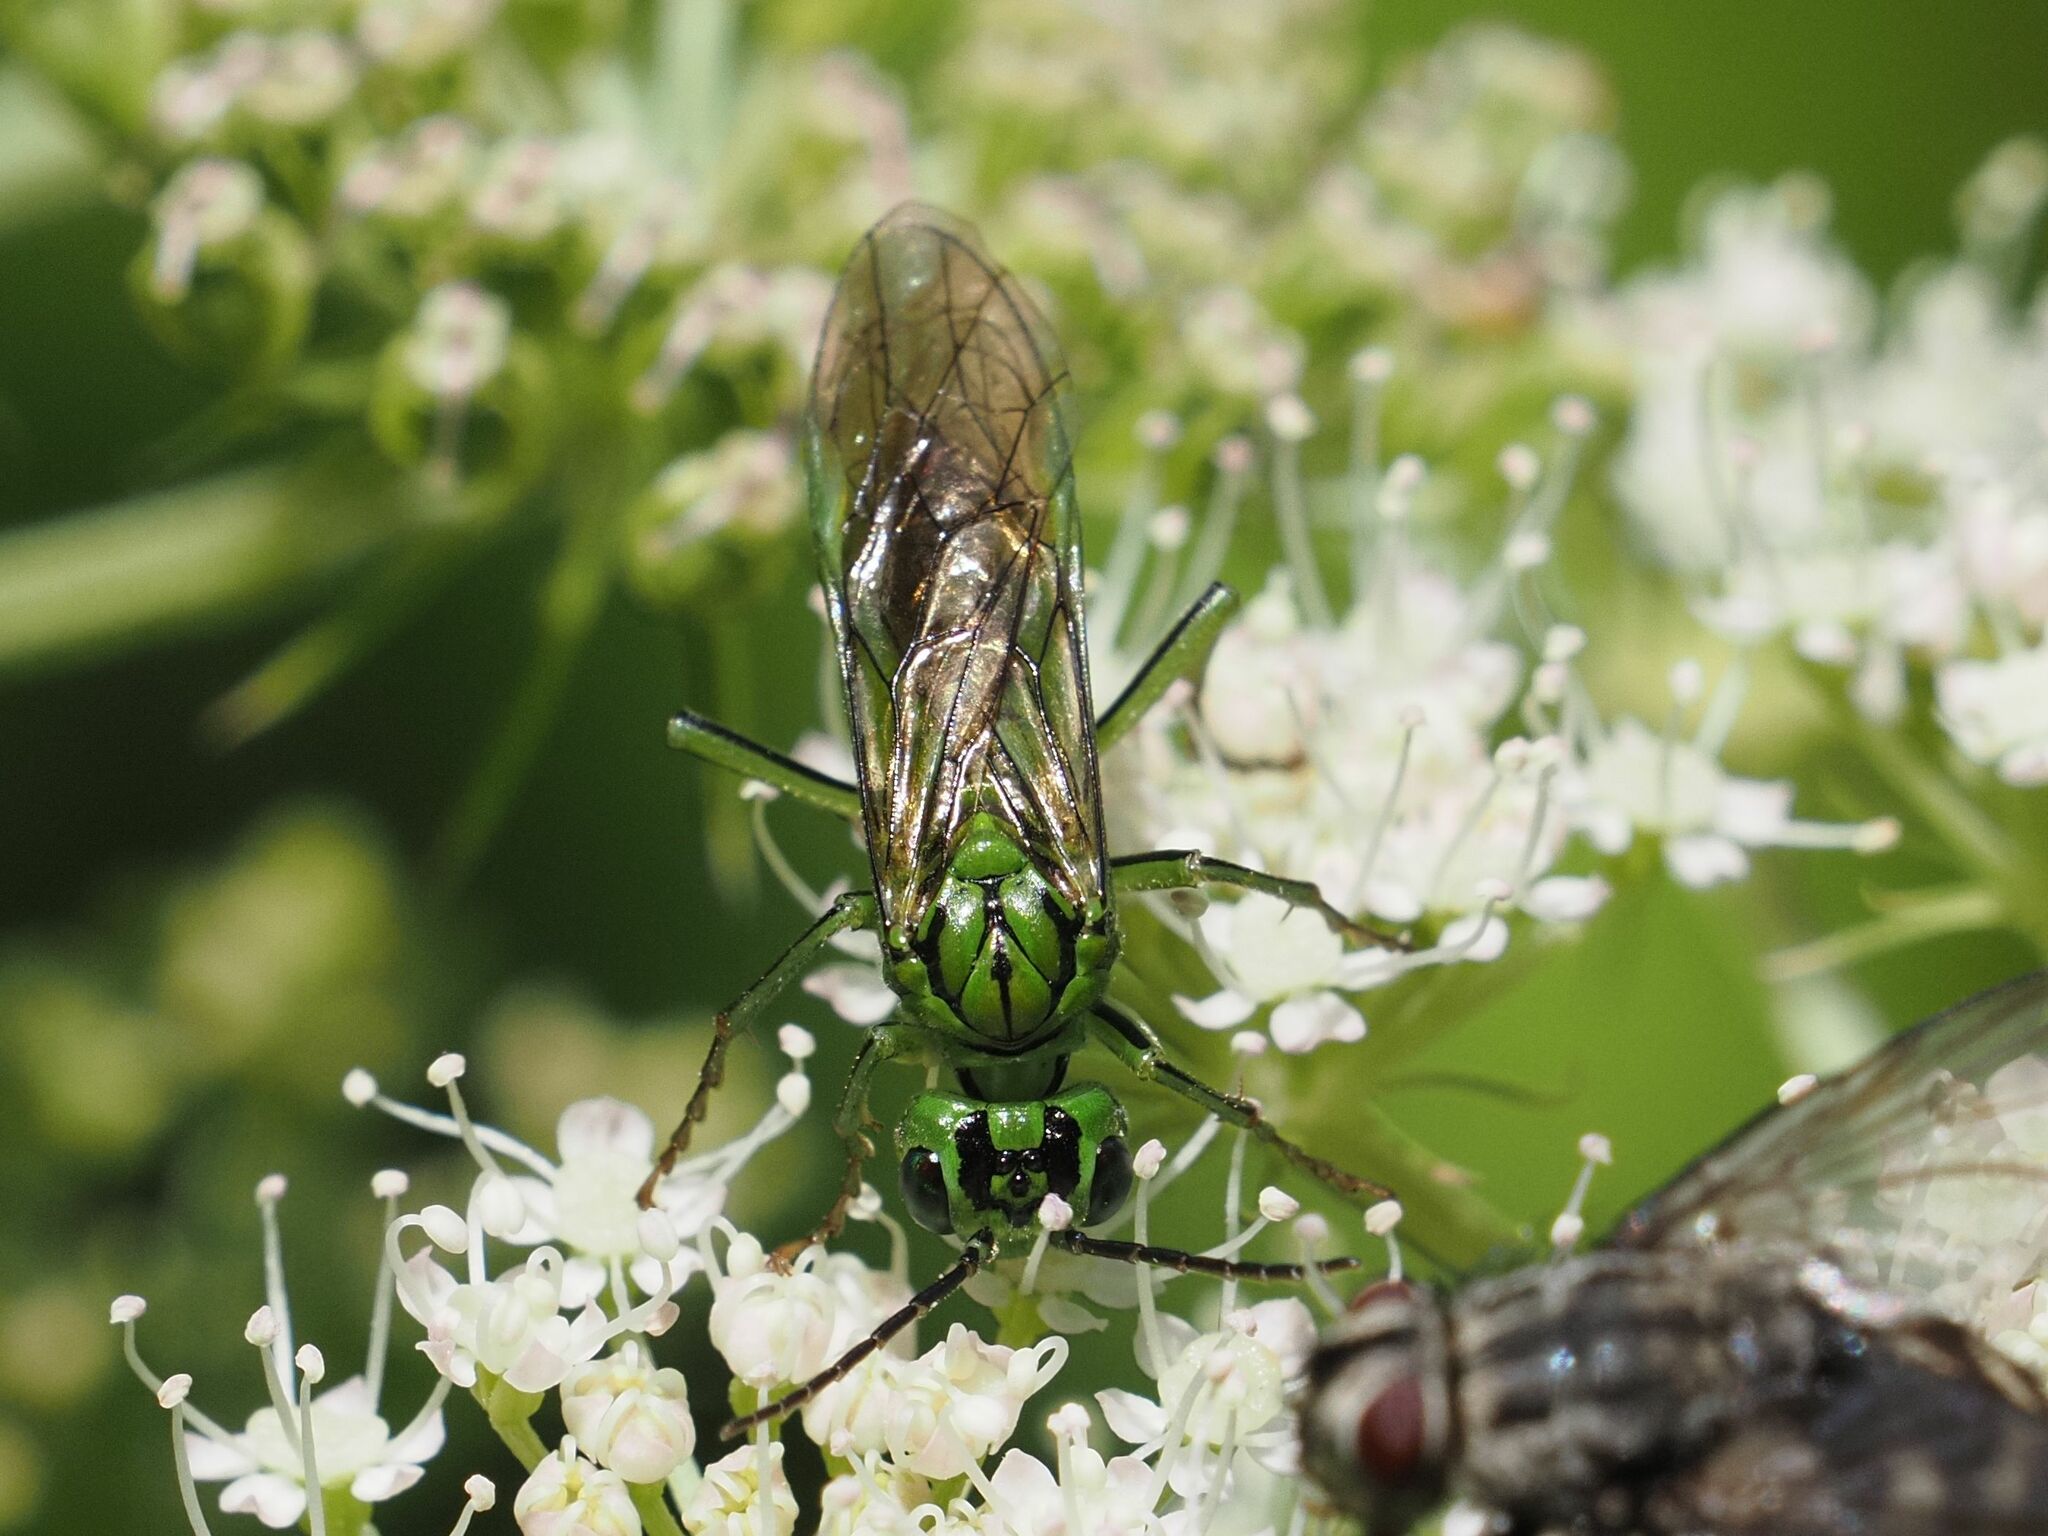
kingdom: Animalia
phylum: Arthropoda
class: Insecta
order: Hymenoptera
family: Tenthredinidae
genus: Tenthredo
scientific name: Tenthredo olivacea
